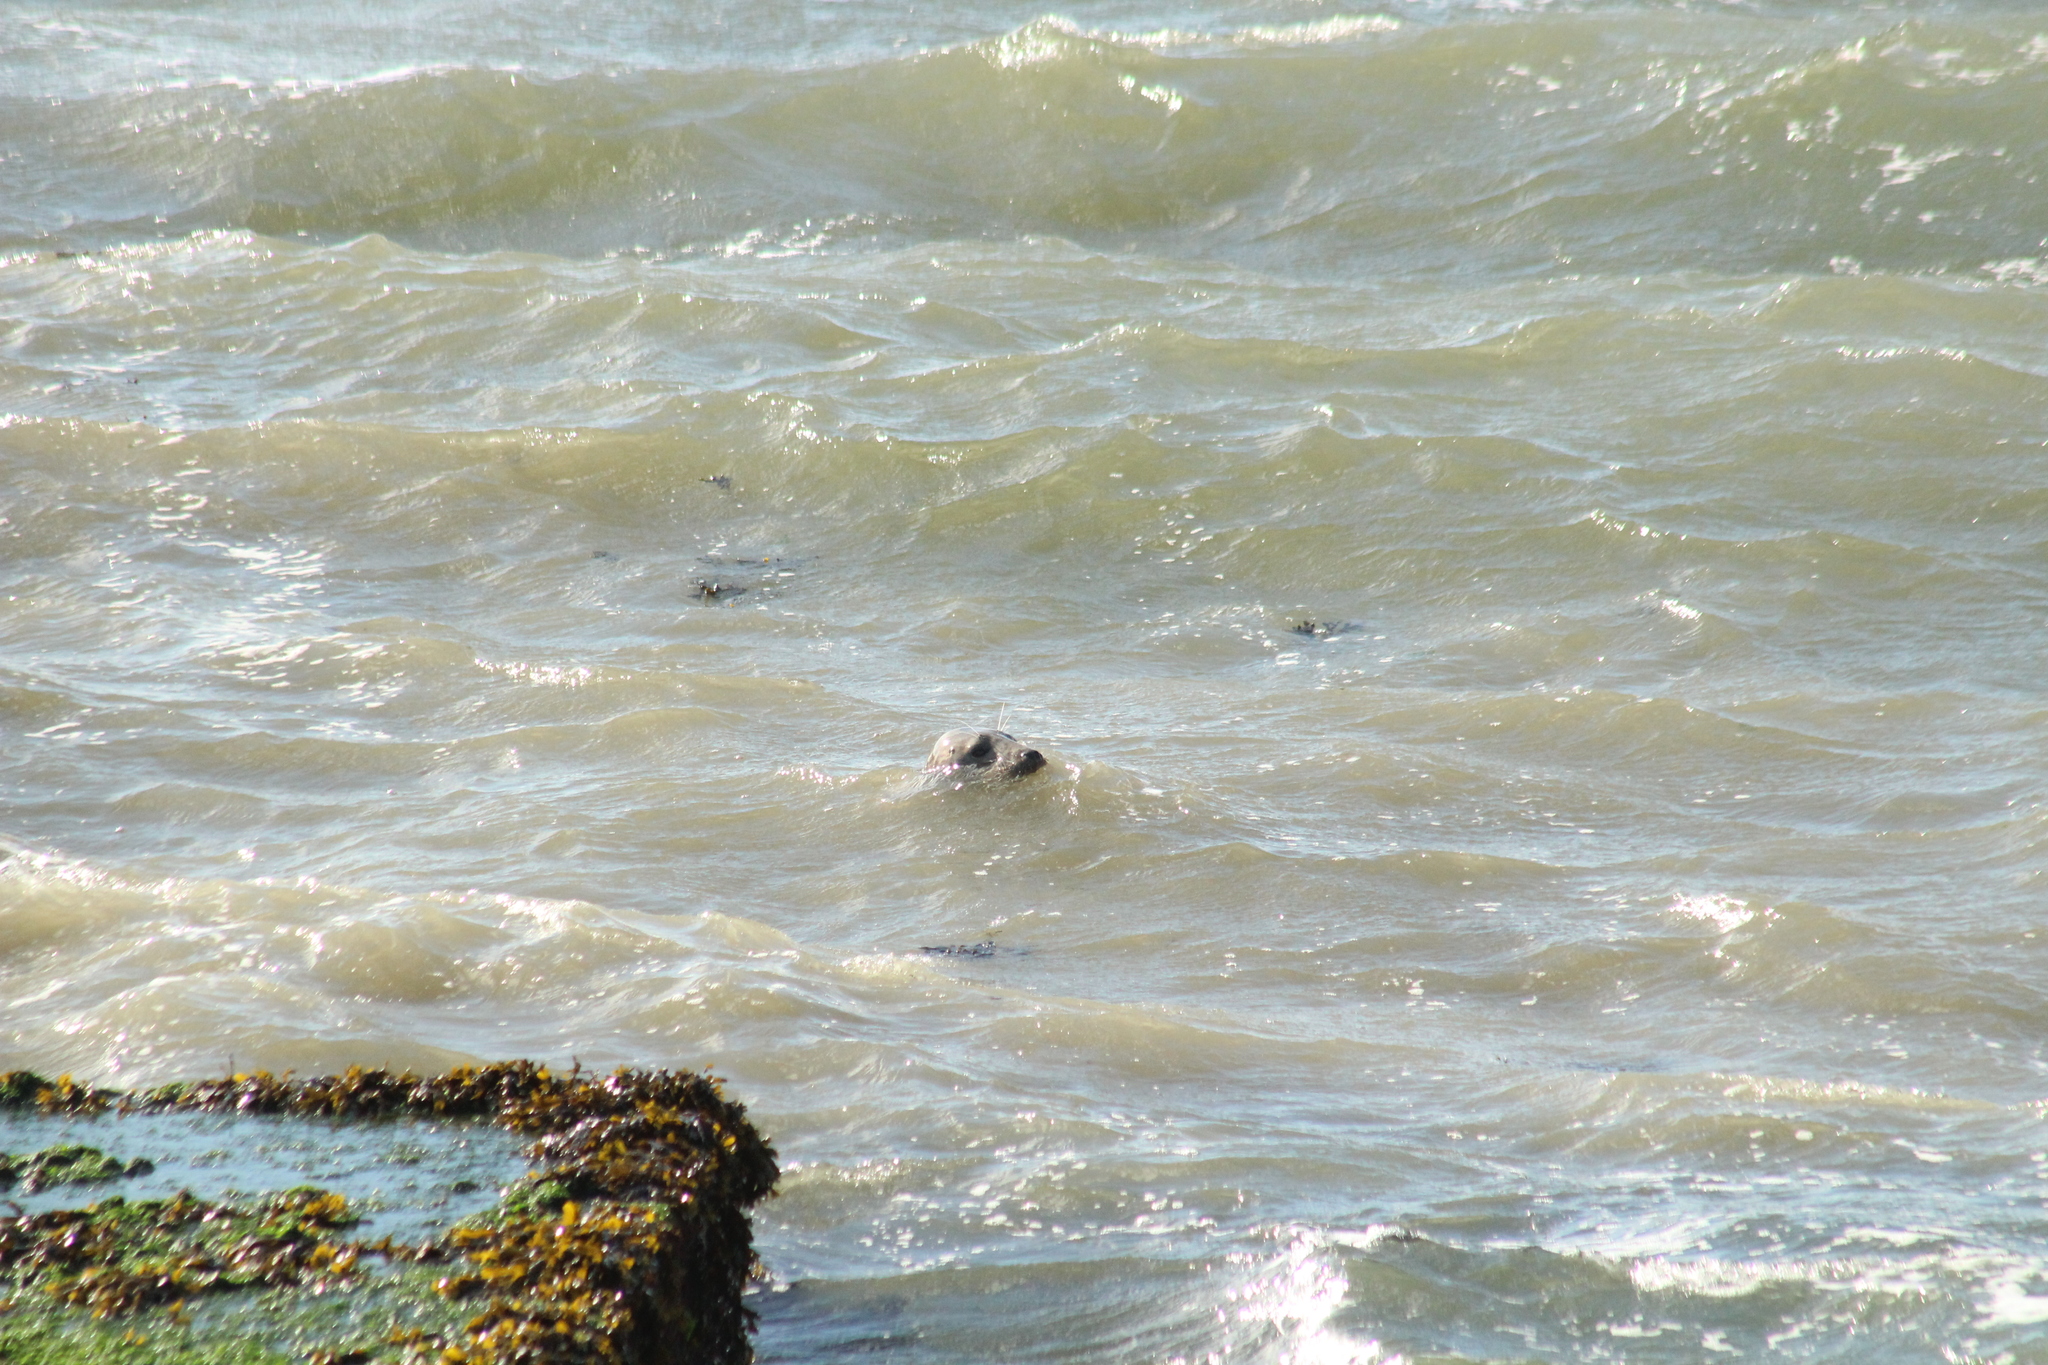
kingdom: Animalia
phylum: Chordata
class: Mammalia
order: Carnivora
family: Phocidae
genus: Halichoerus
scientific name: Halichoerus grypus
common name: Grey seal
